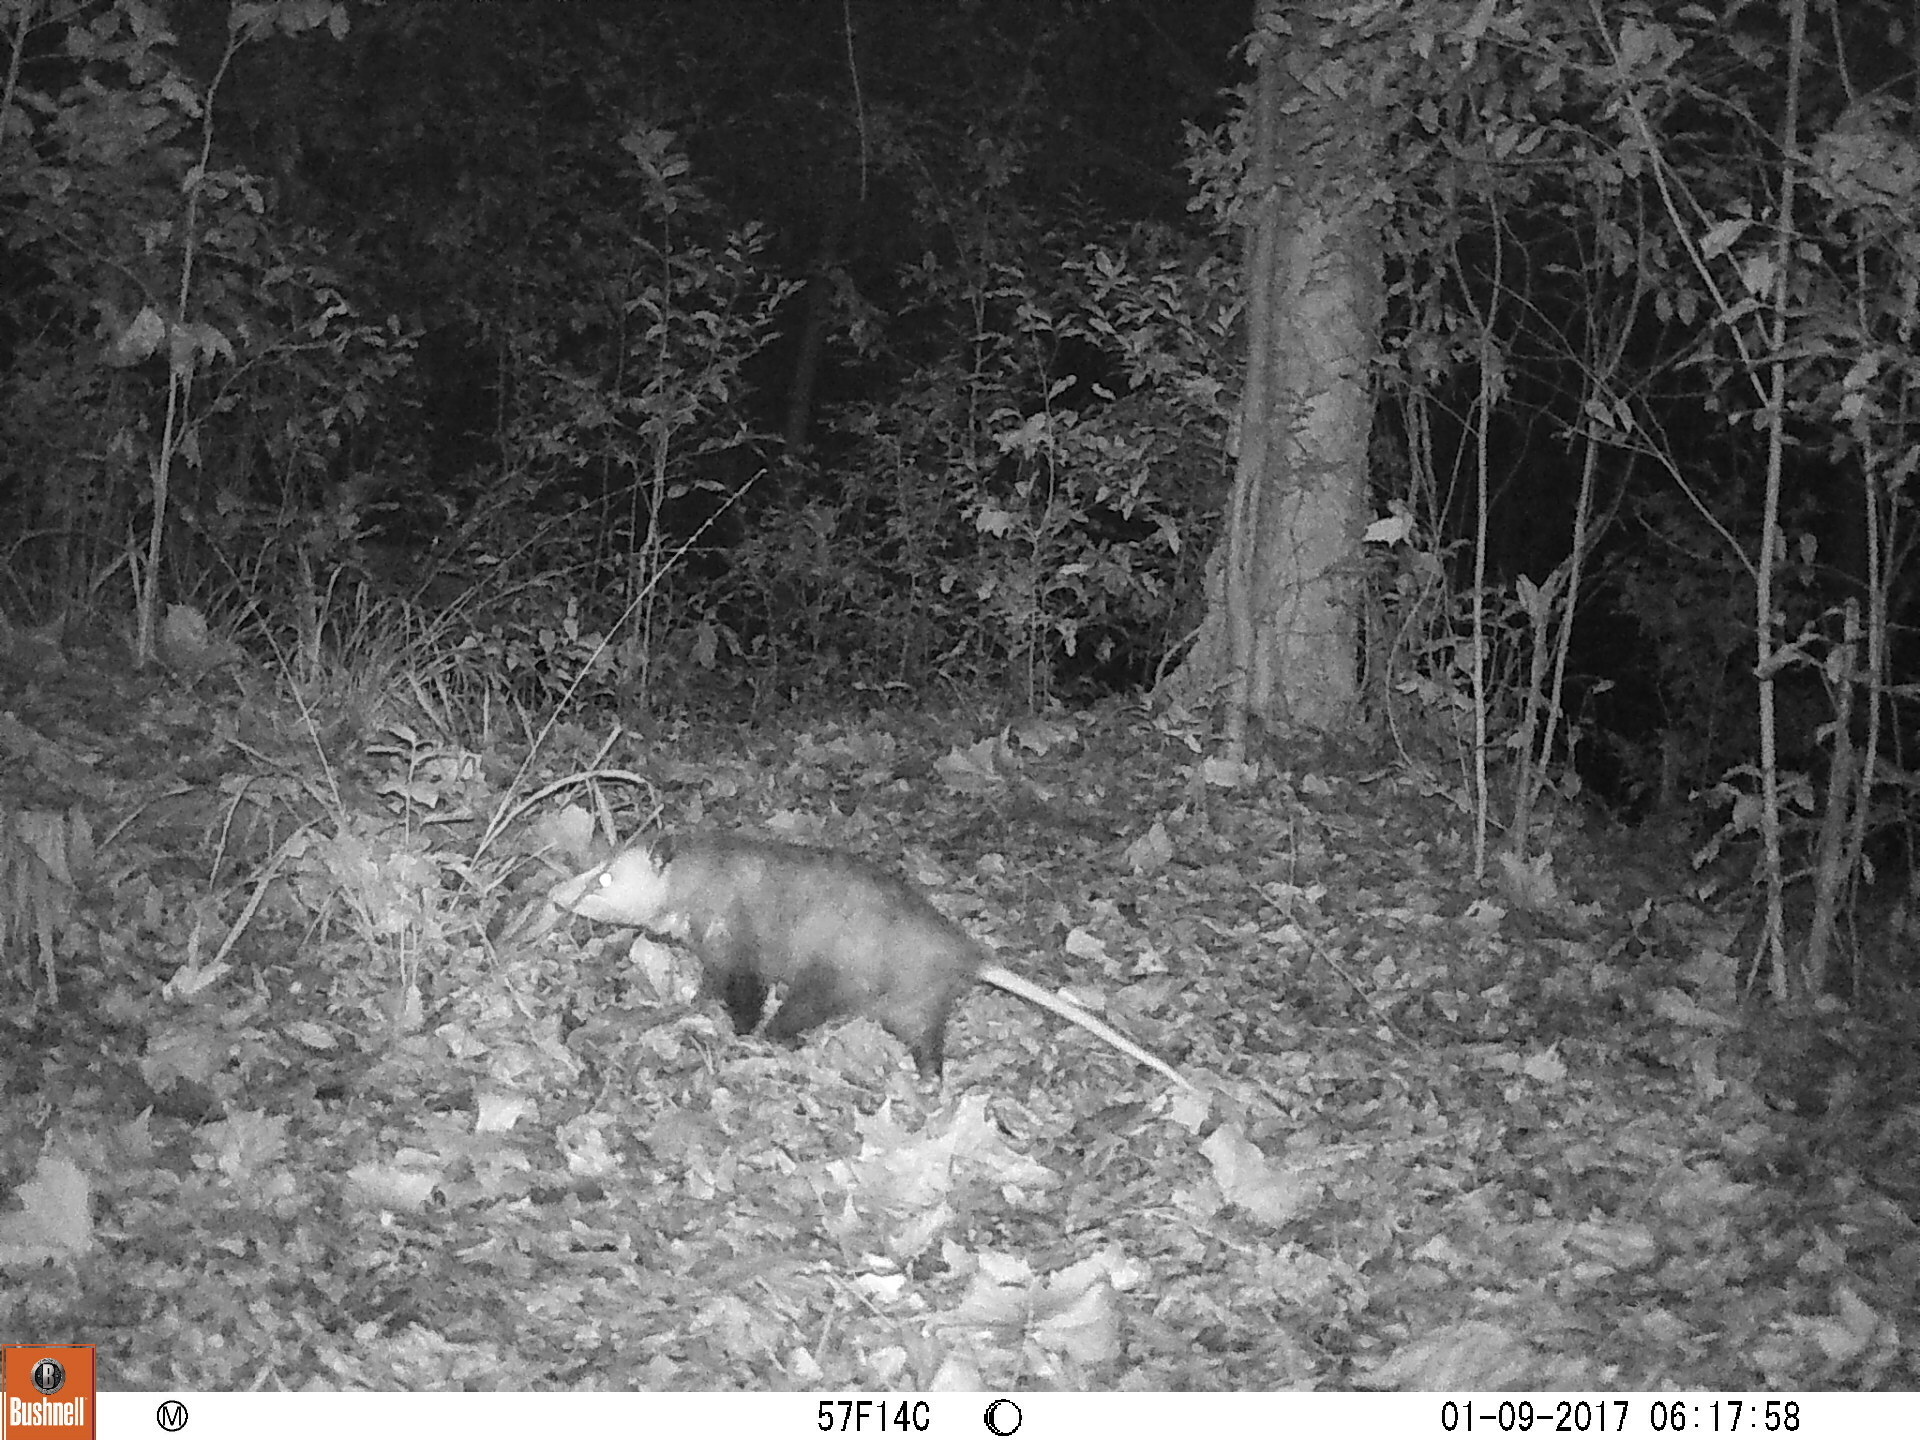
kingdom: Animalia
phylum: Chordata
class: Mammalia
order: Didelphimorphia
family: Didelphidae
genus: Didelphis
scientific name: Didelphis virginiana
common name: Virginia opossum
